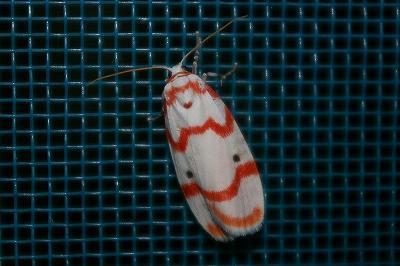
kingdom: Animalia
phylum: Arthropoda
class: Insecta
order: Lepidoptera
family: Erebidae
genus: Cyana
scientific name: Cyana hamata
